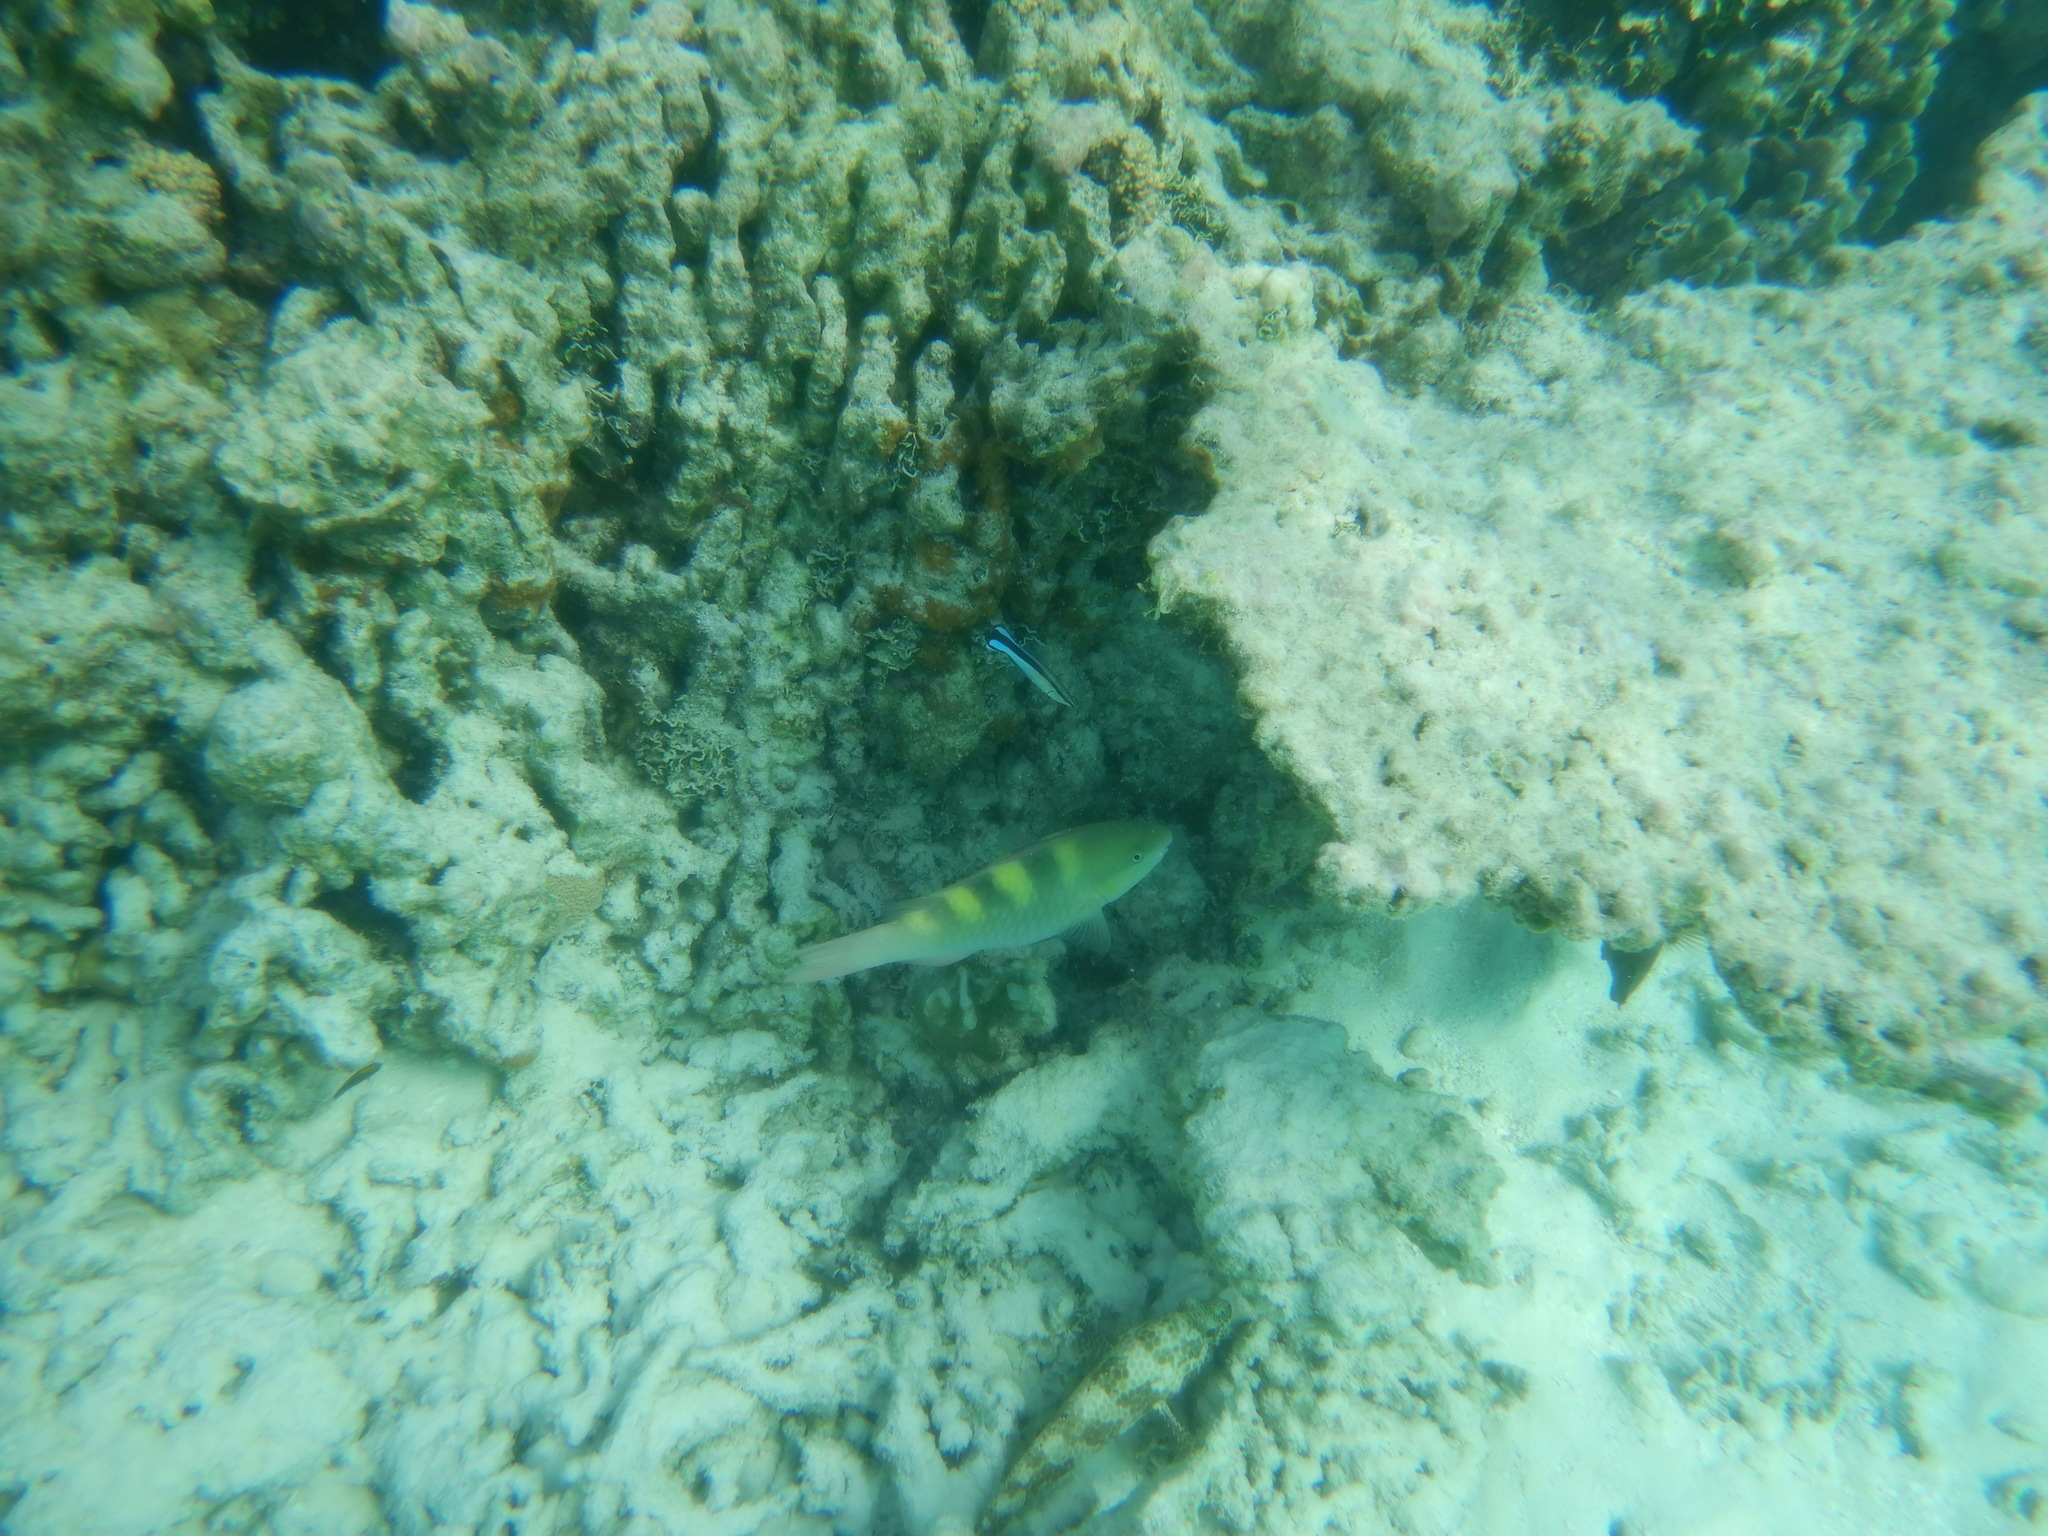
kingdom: Animalia
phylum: Chordata
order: Perciformes
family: Scaridae
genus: Scarus
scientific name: Scarus scaber
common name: Dusky-capped parrotfish
